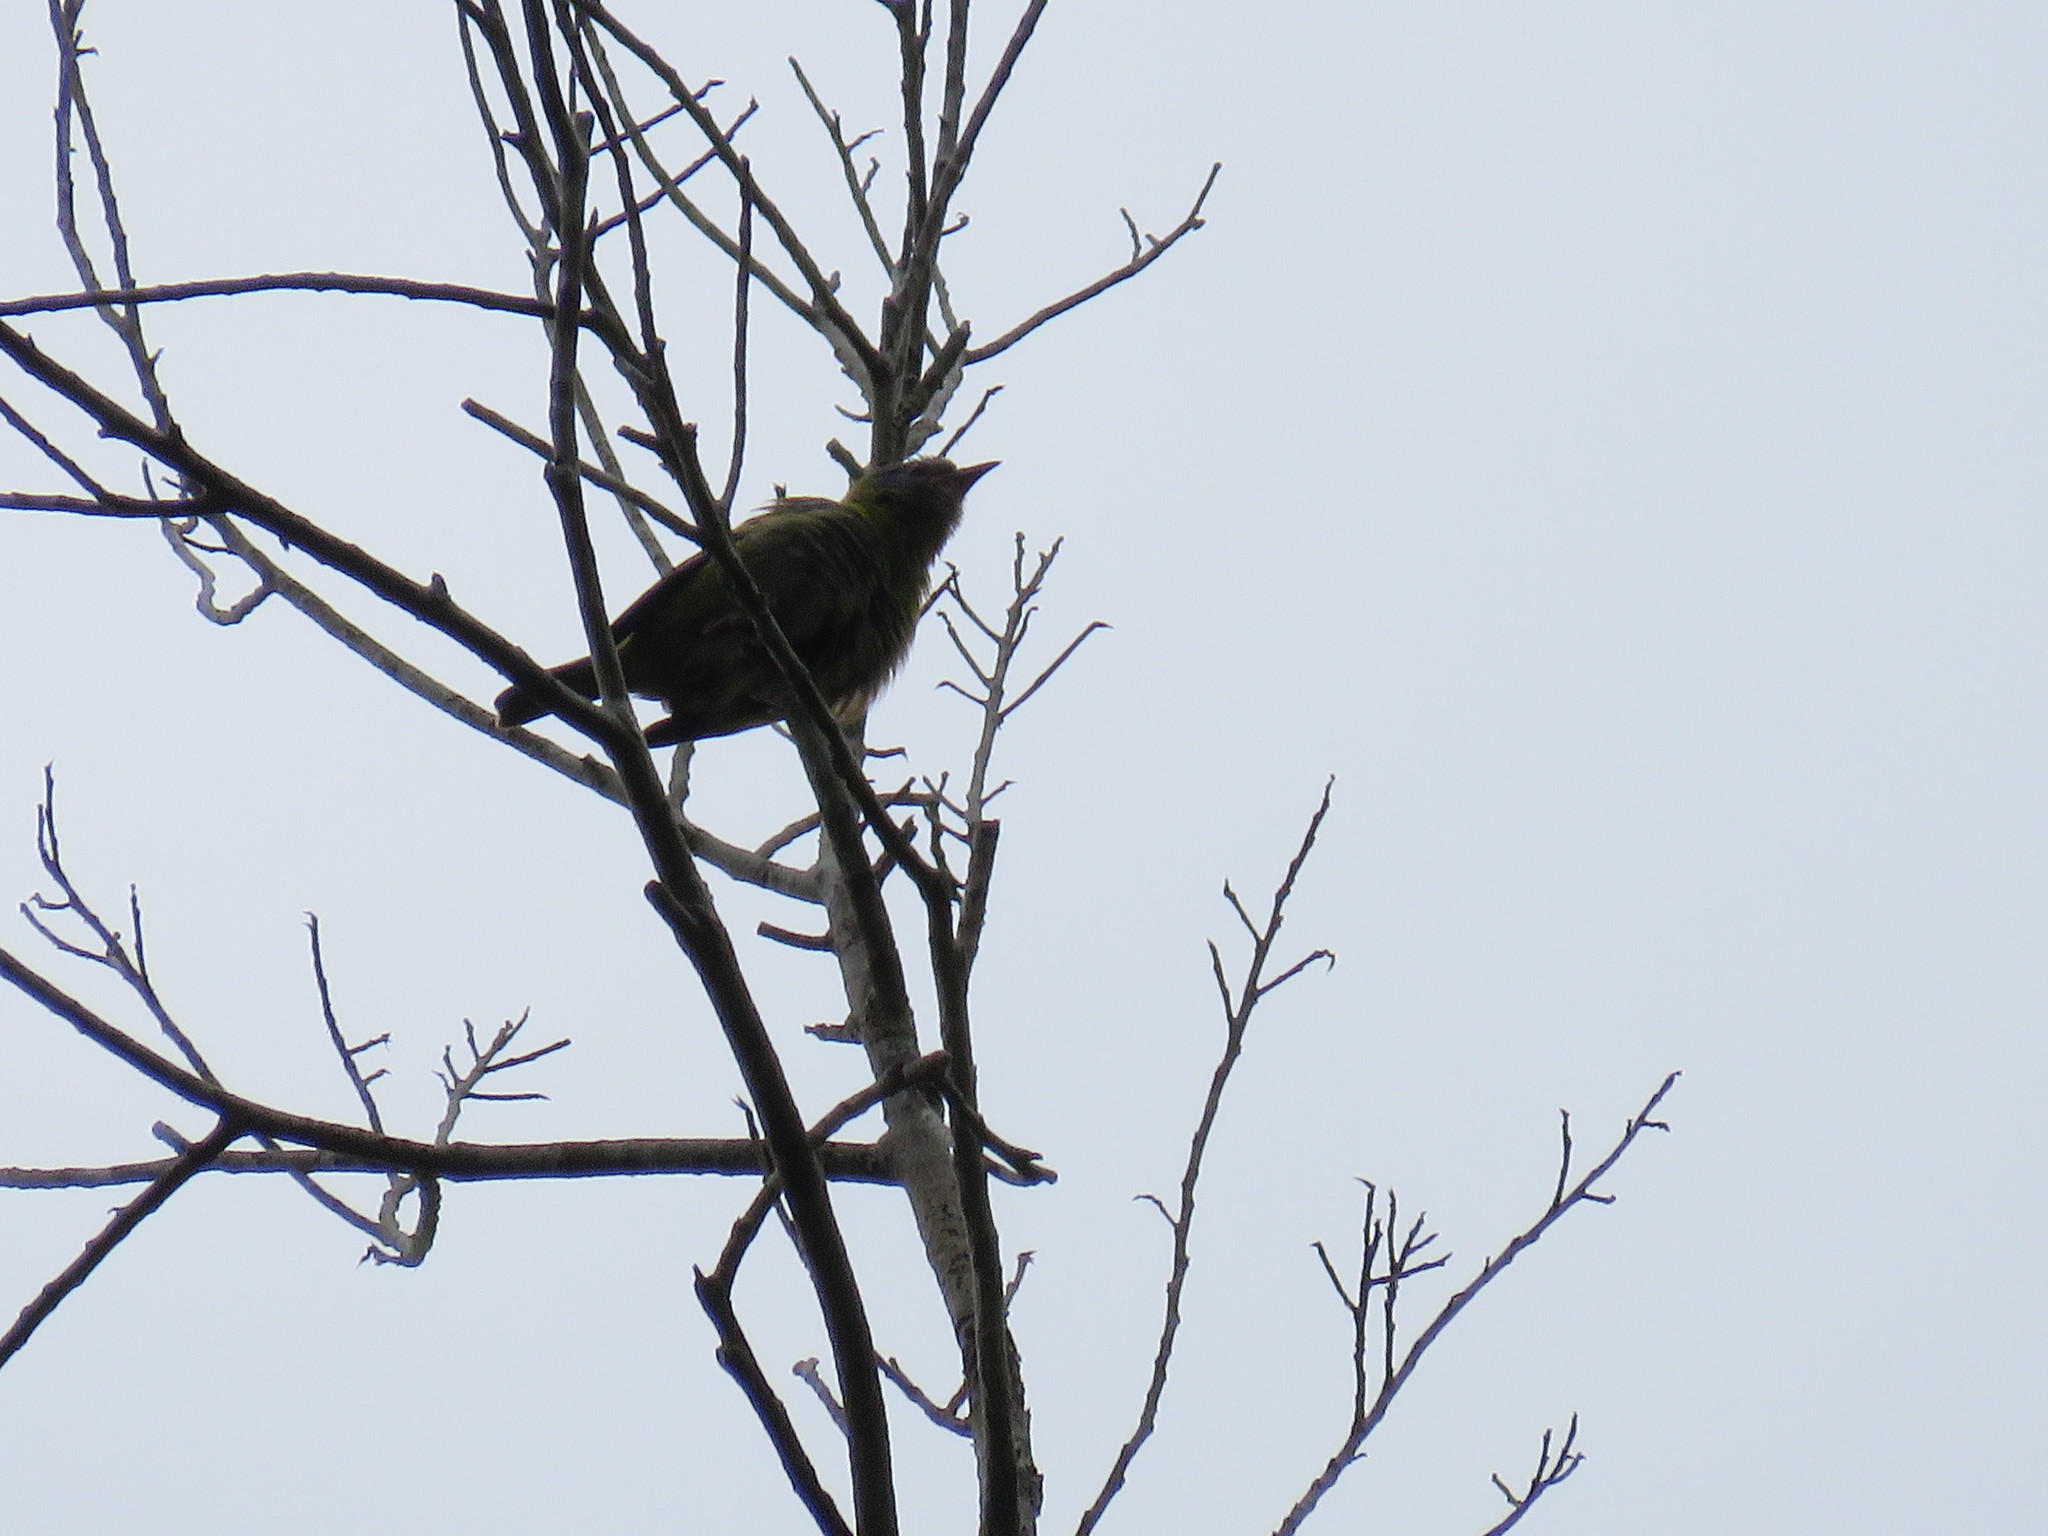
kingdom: Animalia
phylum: Chordata
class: Aves
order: Passeriformes
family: Thraupidae
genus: Dacnis
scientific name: Dacnis cayana
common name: Blue dacnis
